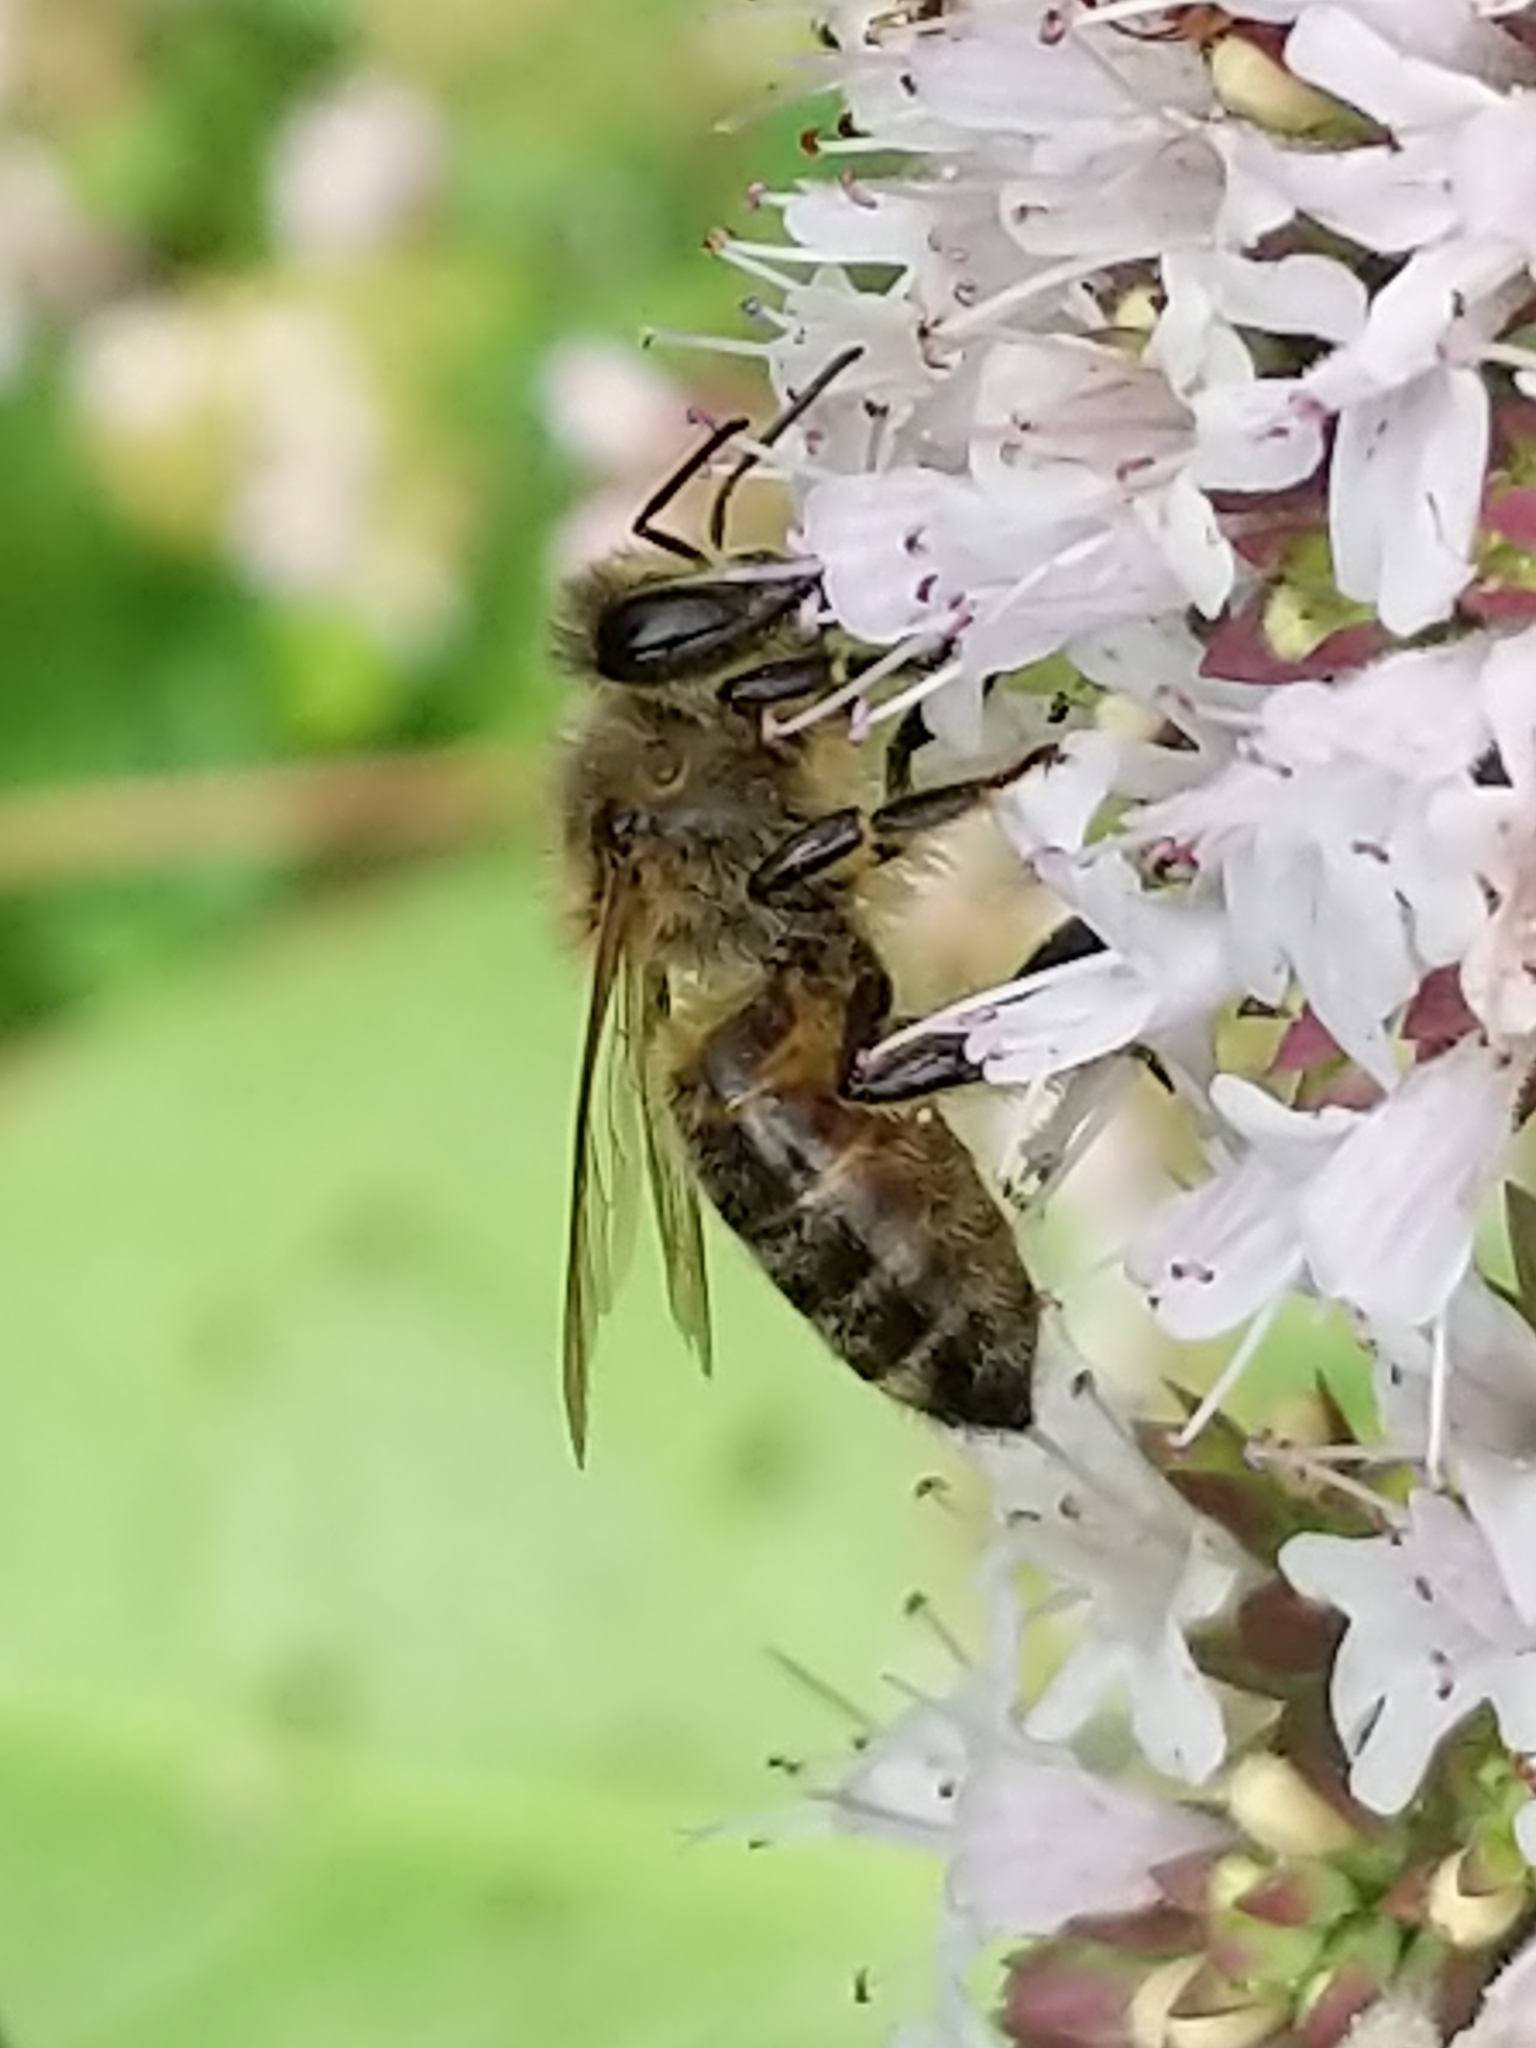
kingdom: Animalia
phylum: Arthropoda
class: Insecta
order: Hymenoptera
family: Apidae
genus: Apis
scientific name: Apis mellifera
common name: Honey bee
